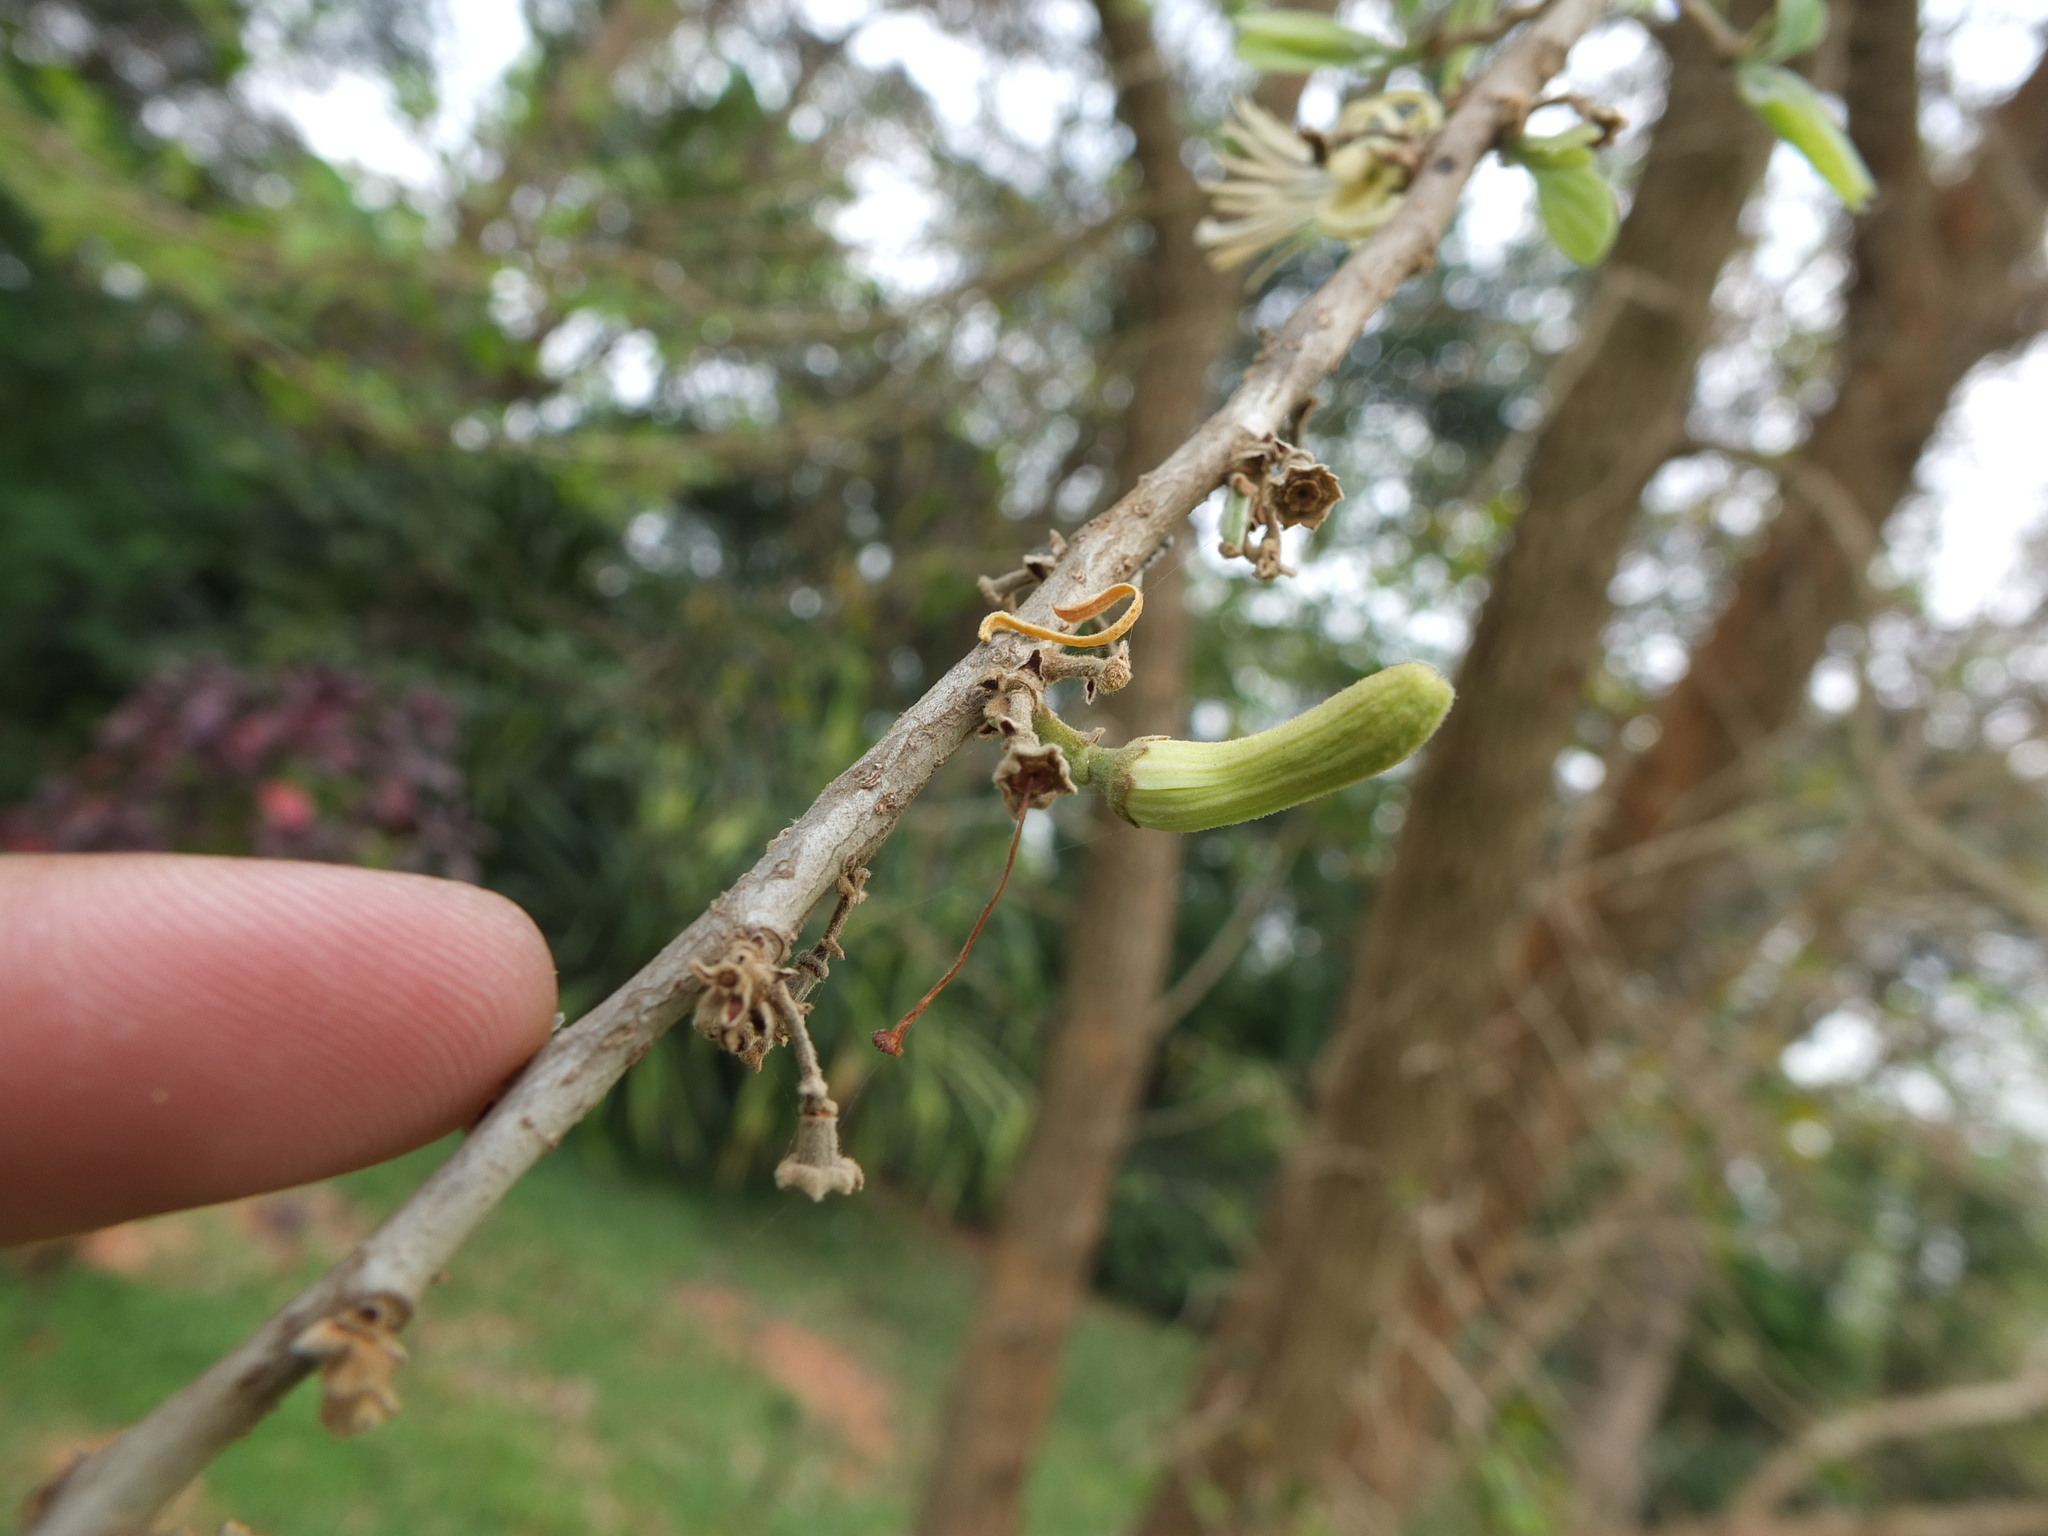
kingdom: Plantae
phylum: Tracheophyta
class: Magnoliopsida
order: Cornales
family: Cornaceae
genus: Alangium
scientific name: Alangium salviifolium
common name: Sage-leaf alangium
